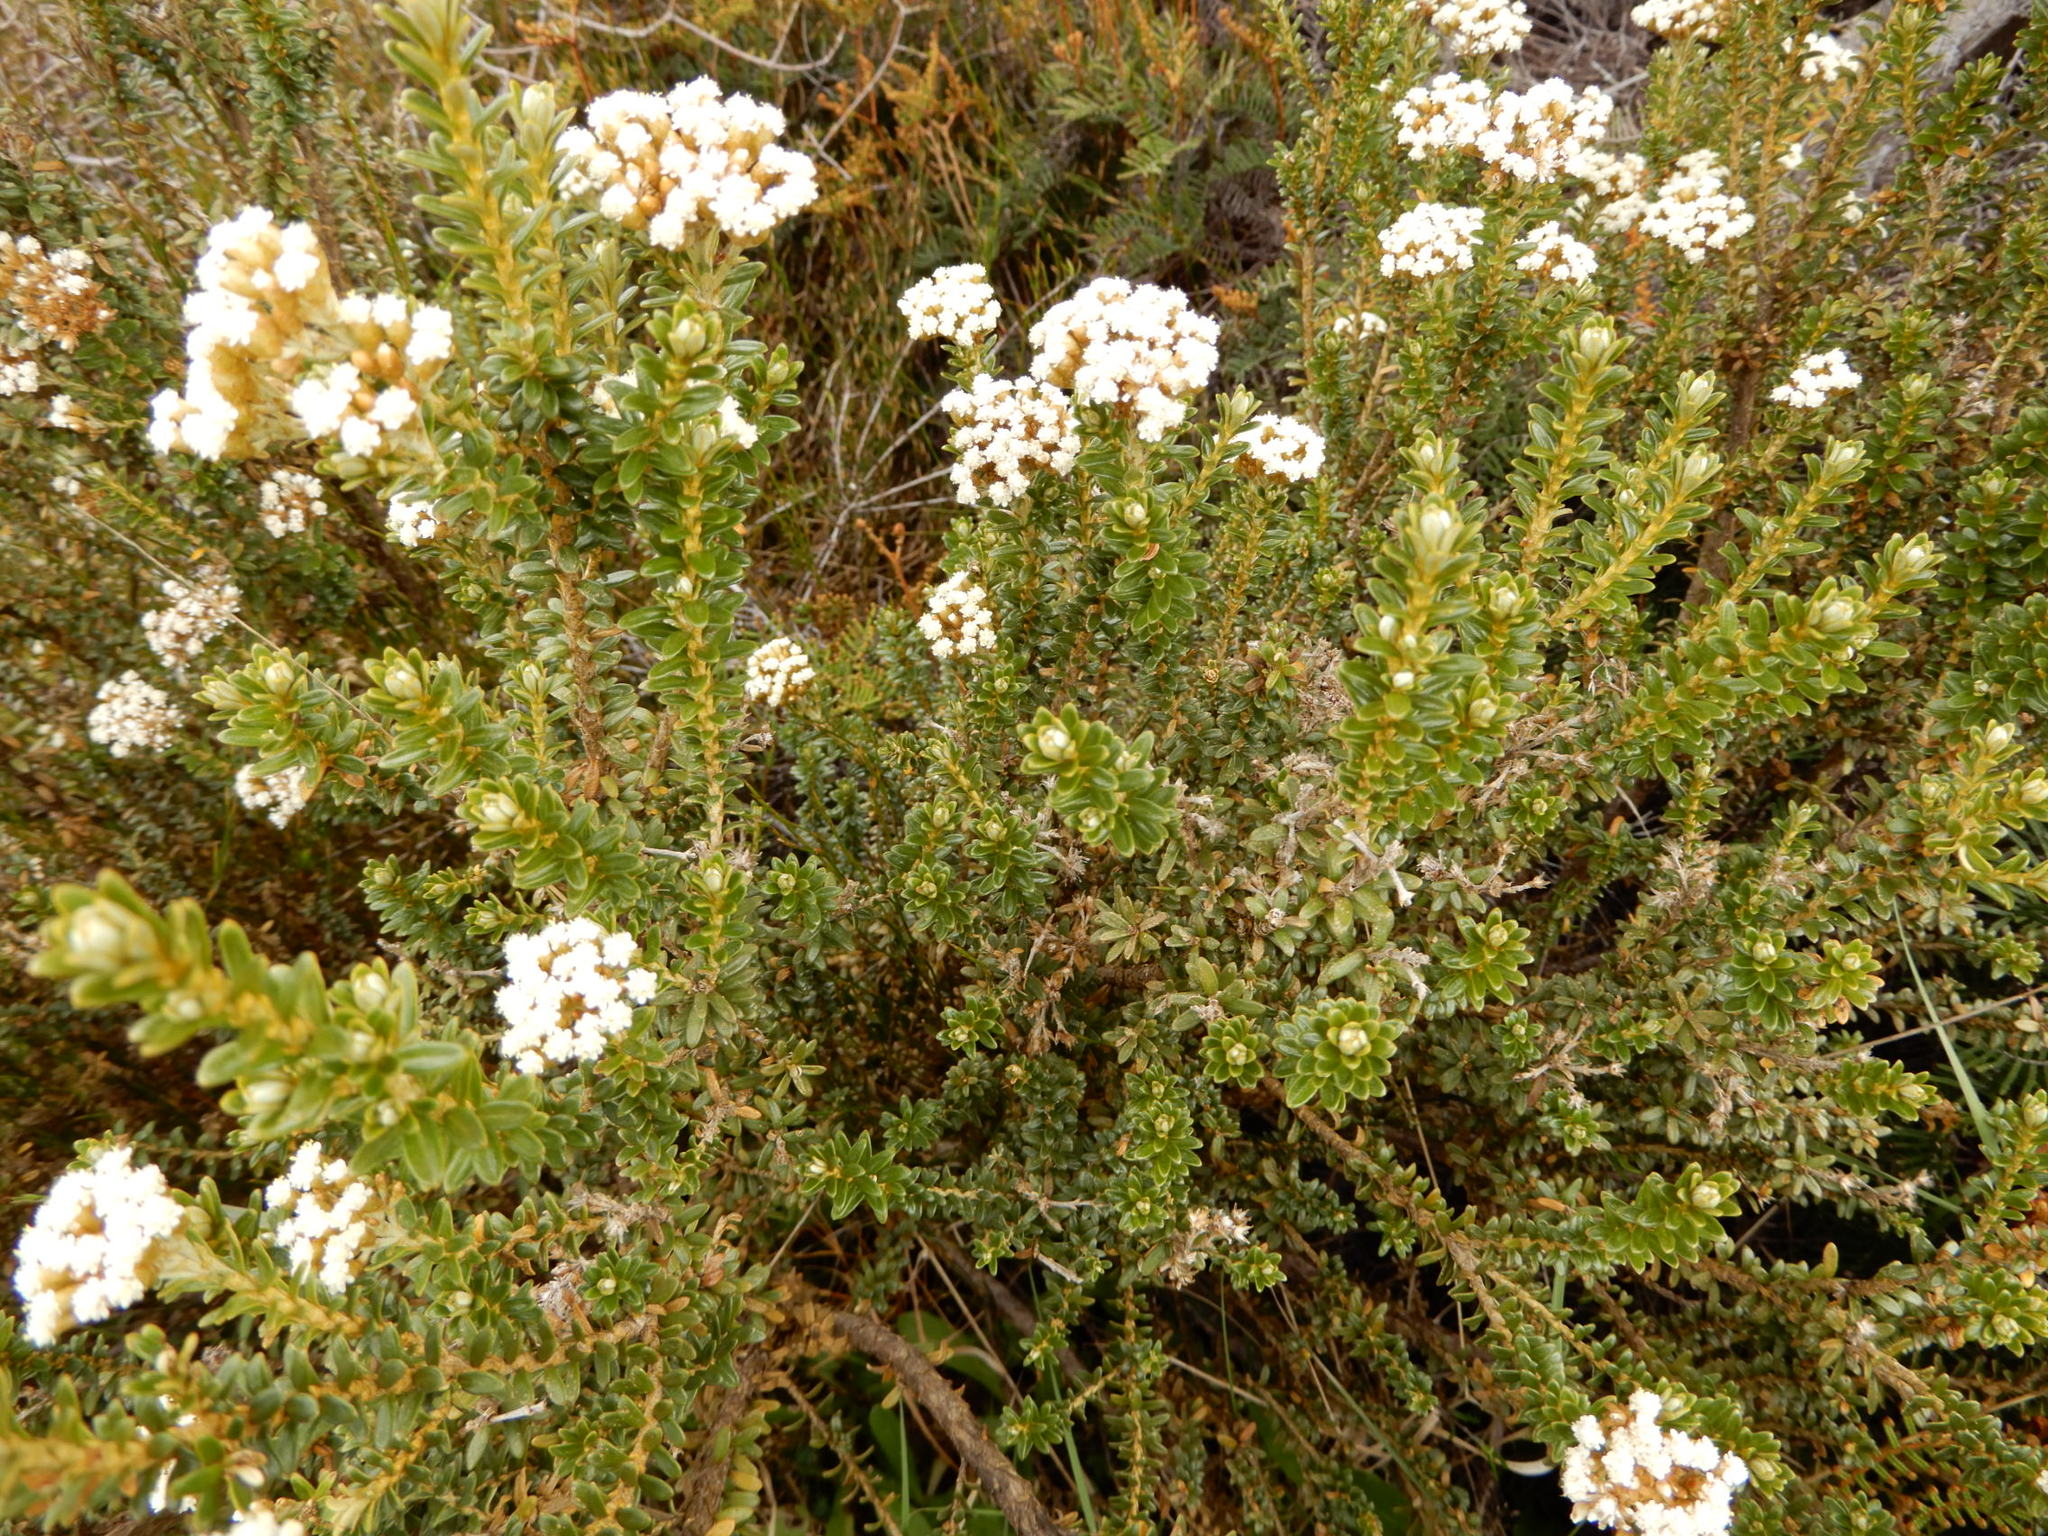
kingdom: Plantae
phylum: Tracheophyta
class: Magnoliopsida
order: Asterales
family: Asteraceae
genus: Ozothamnus
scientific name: Ozothamnus leptophyllus
